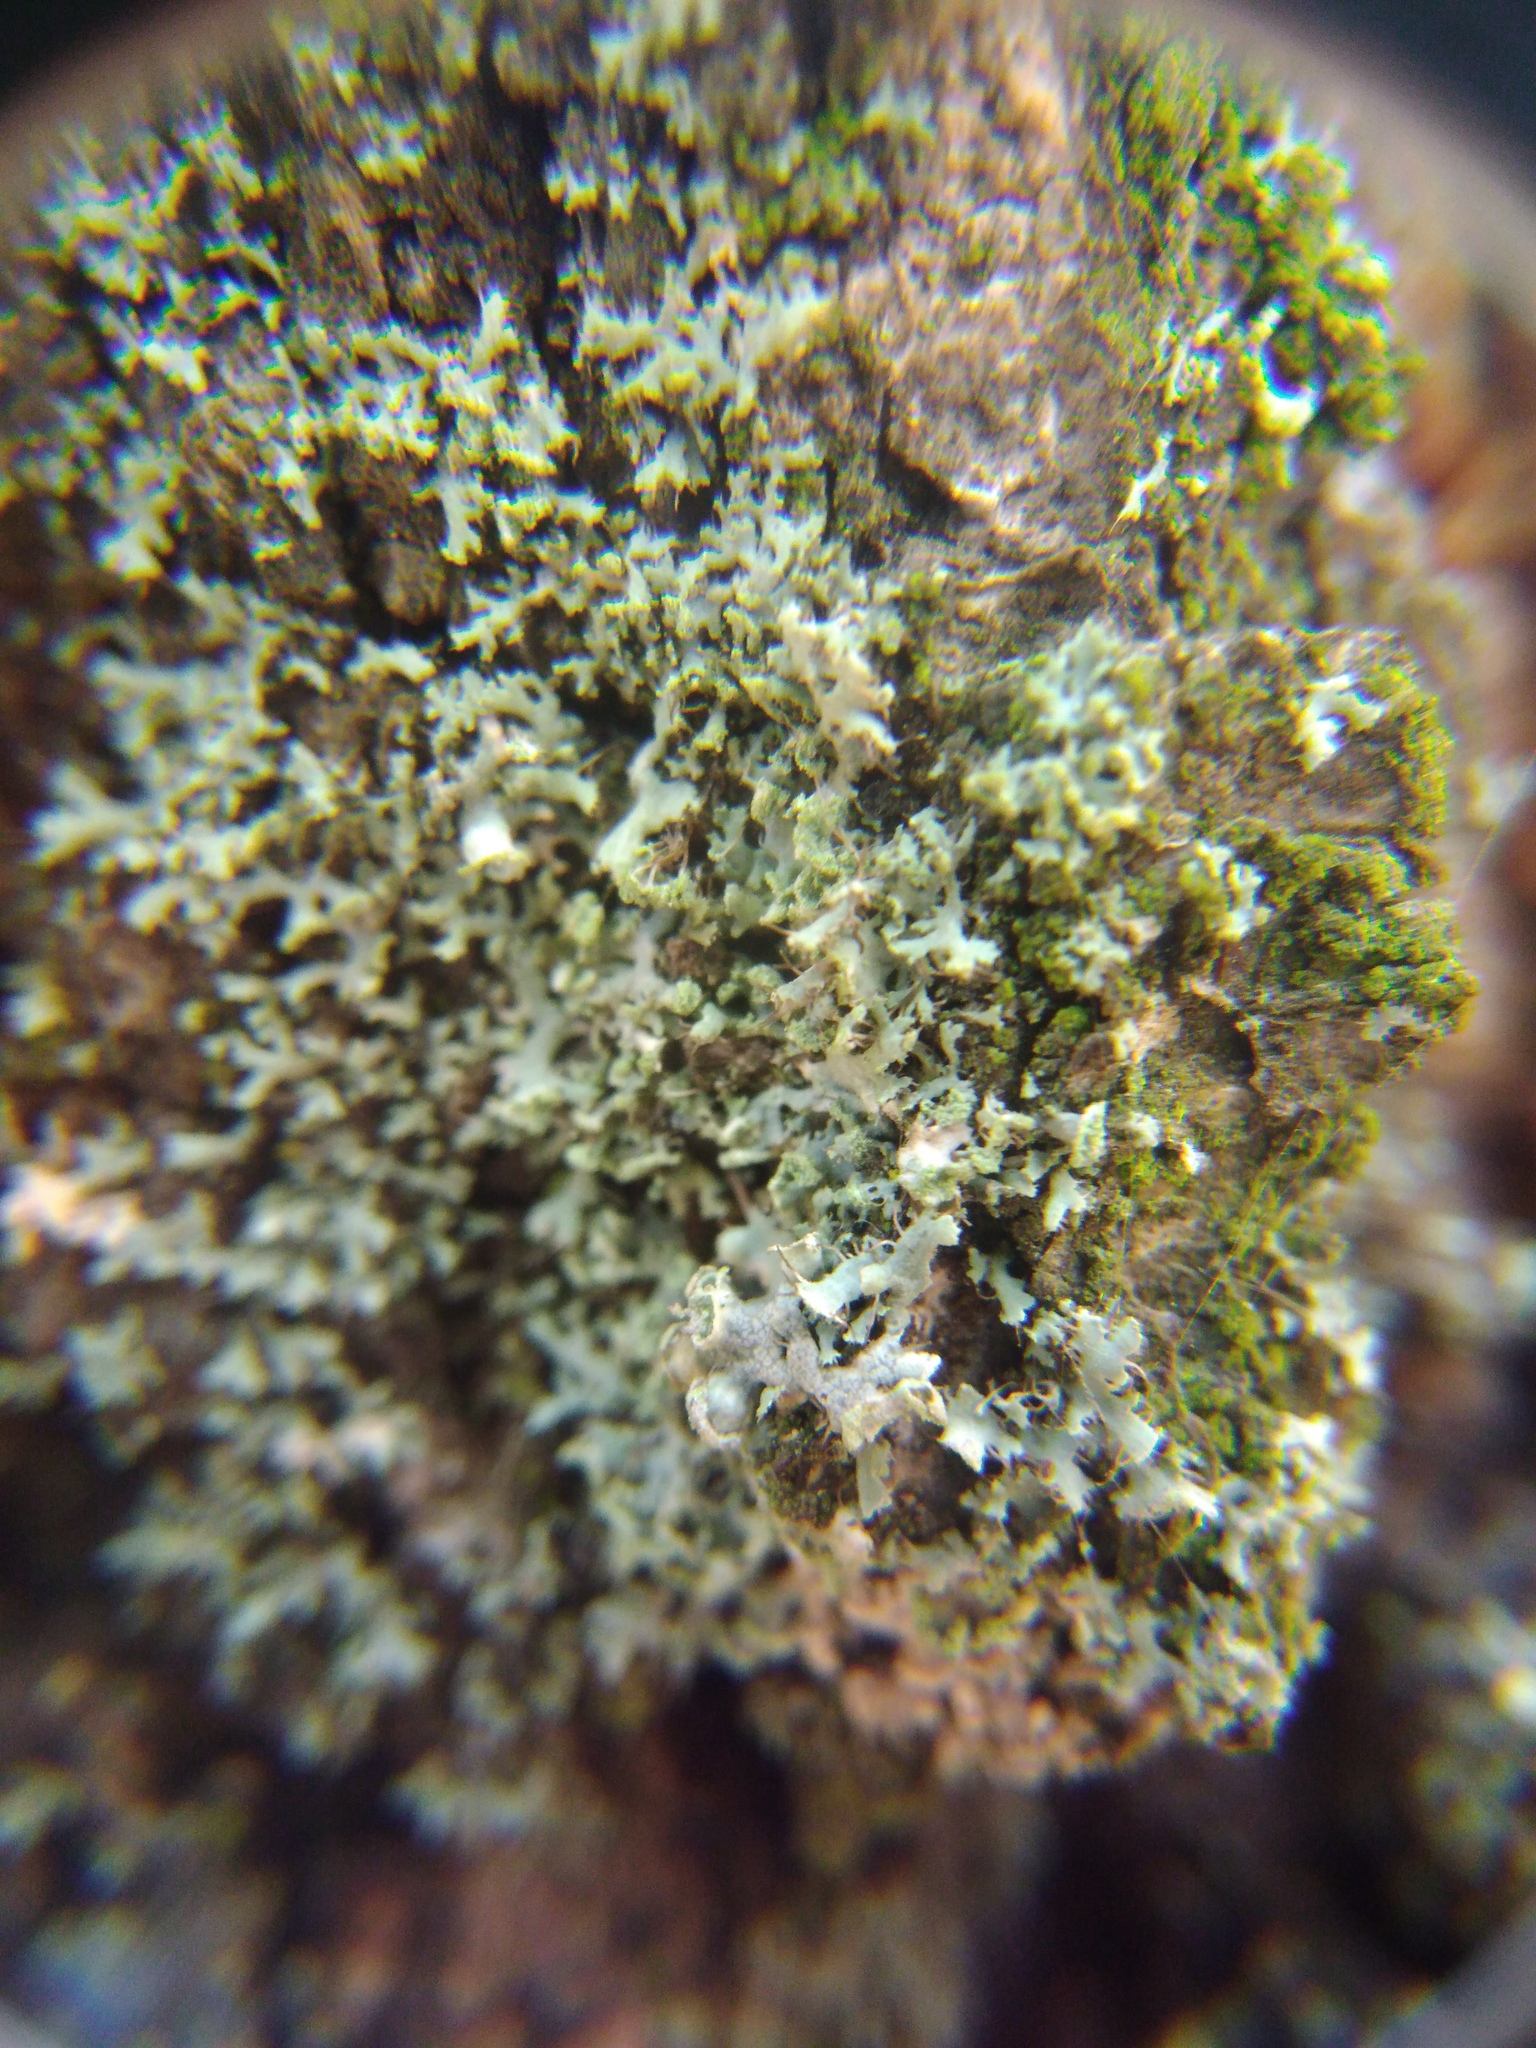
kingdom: Fungi
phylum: Ascomycota
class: Lecanoromycetes
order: Caliciales
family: Physciaceae
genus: Physcia
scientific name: Physcia tenella
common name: Fringed rosette lichen
